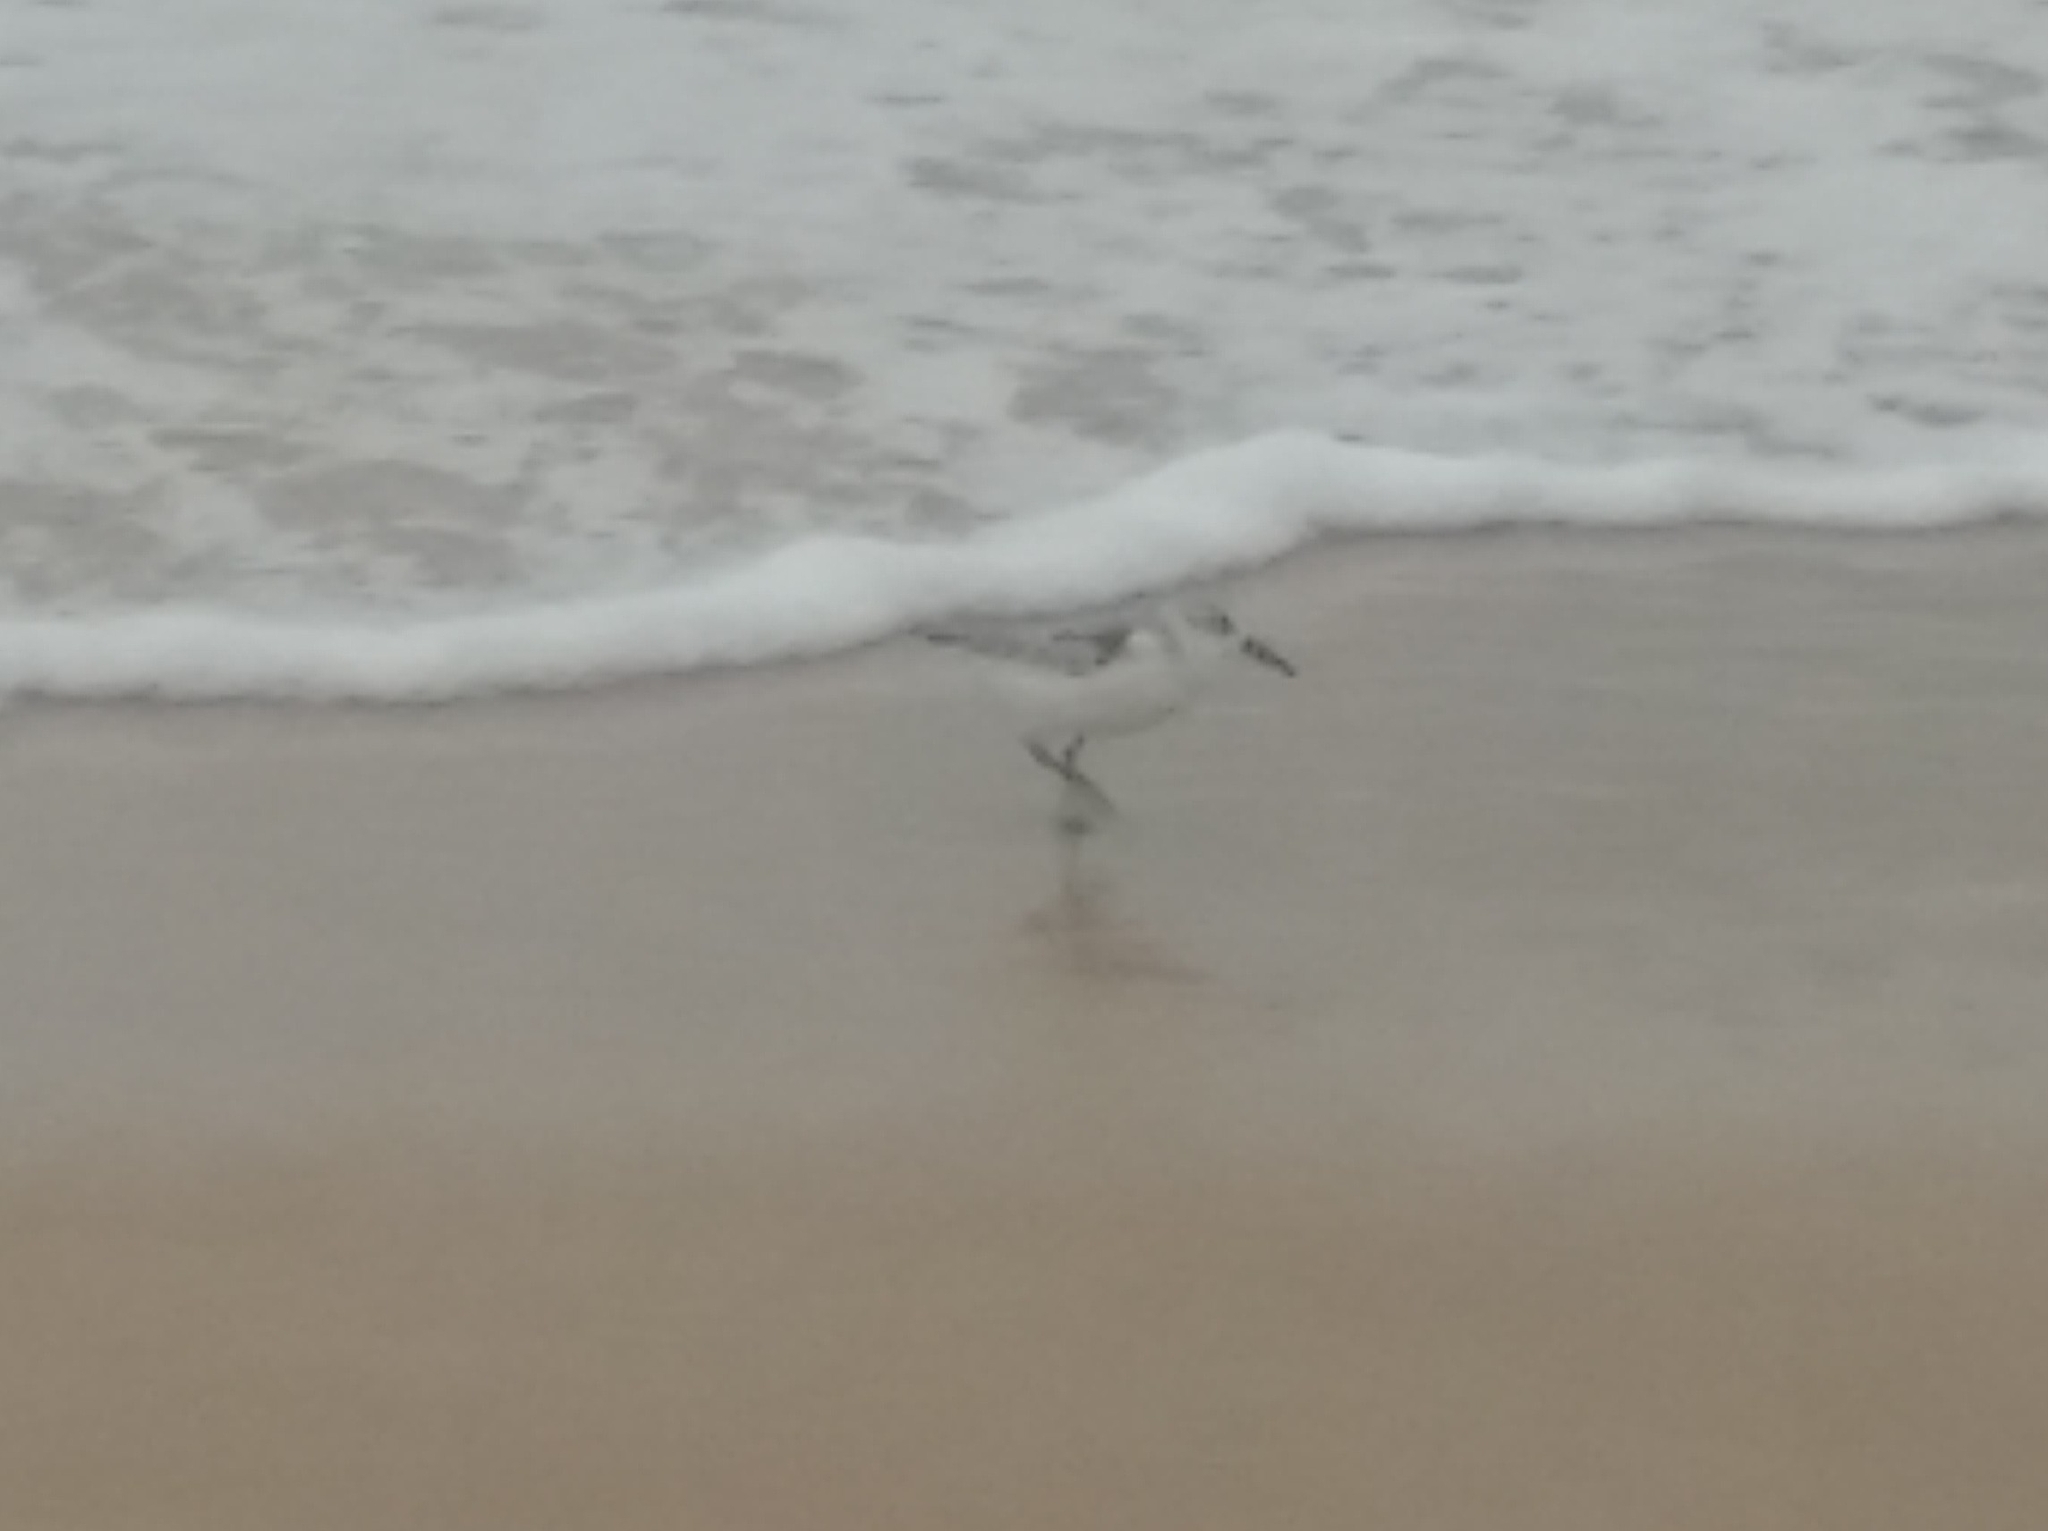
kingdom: Animalia
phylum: Chordata
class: Aves
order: Charadriiformes
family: Scolopacidae
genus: Calidris
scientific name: Calidris alba
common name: Sanderling
